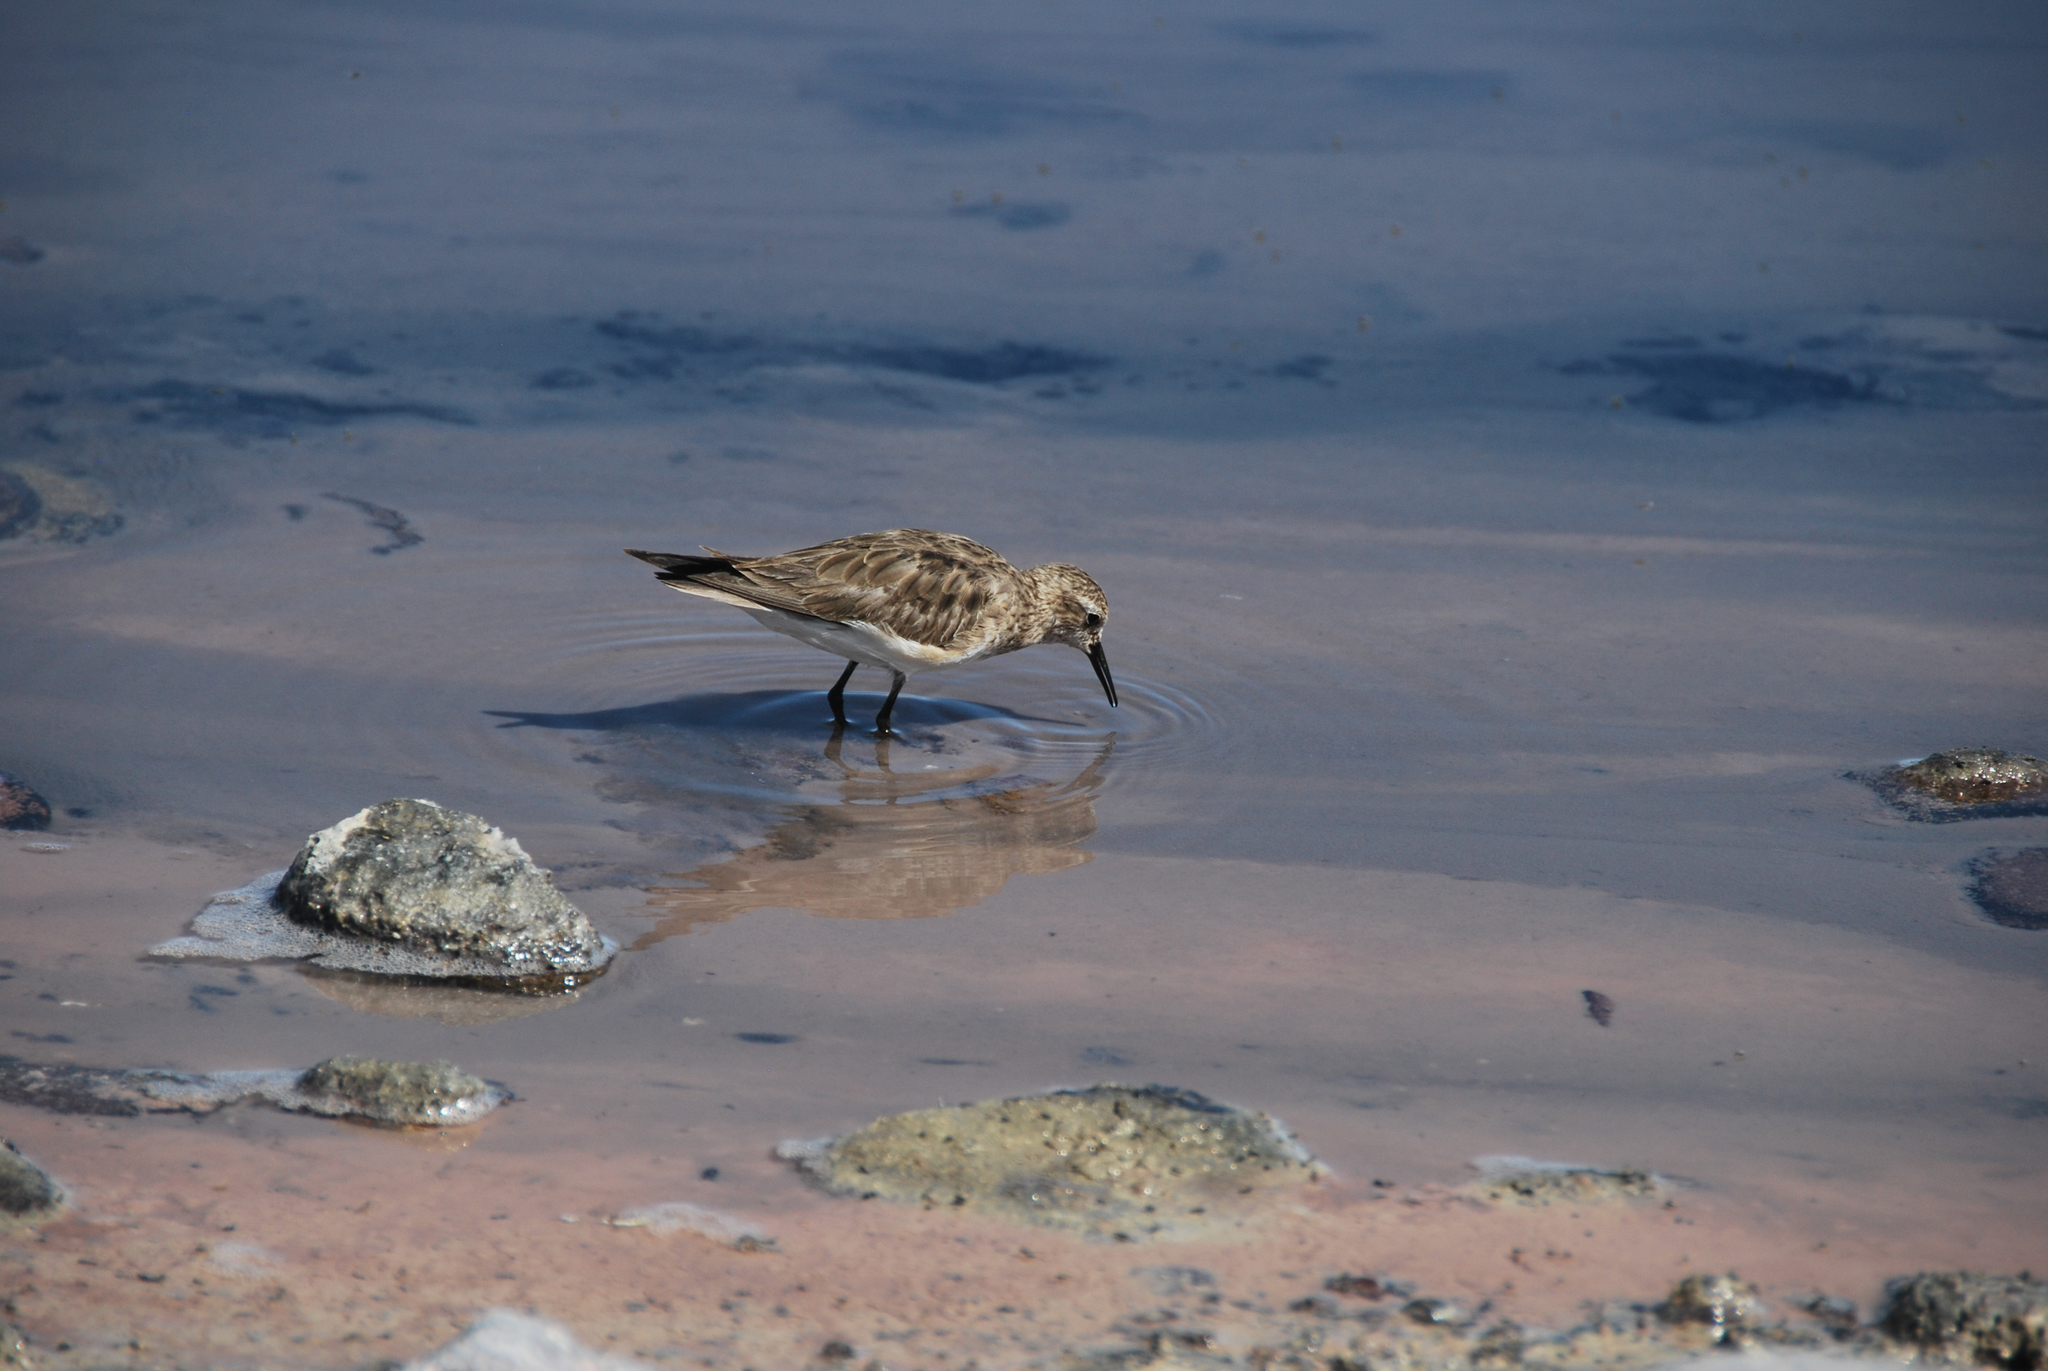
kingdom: Animalia
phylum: Chordata
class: Aves
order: Charadriiformes
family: Scolopacidae
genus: Calidris
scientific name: Calidris bairdii
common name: Baird's sandpiper
